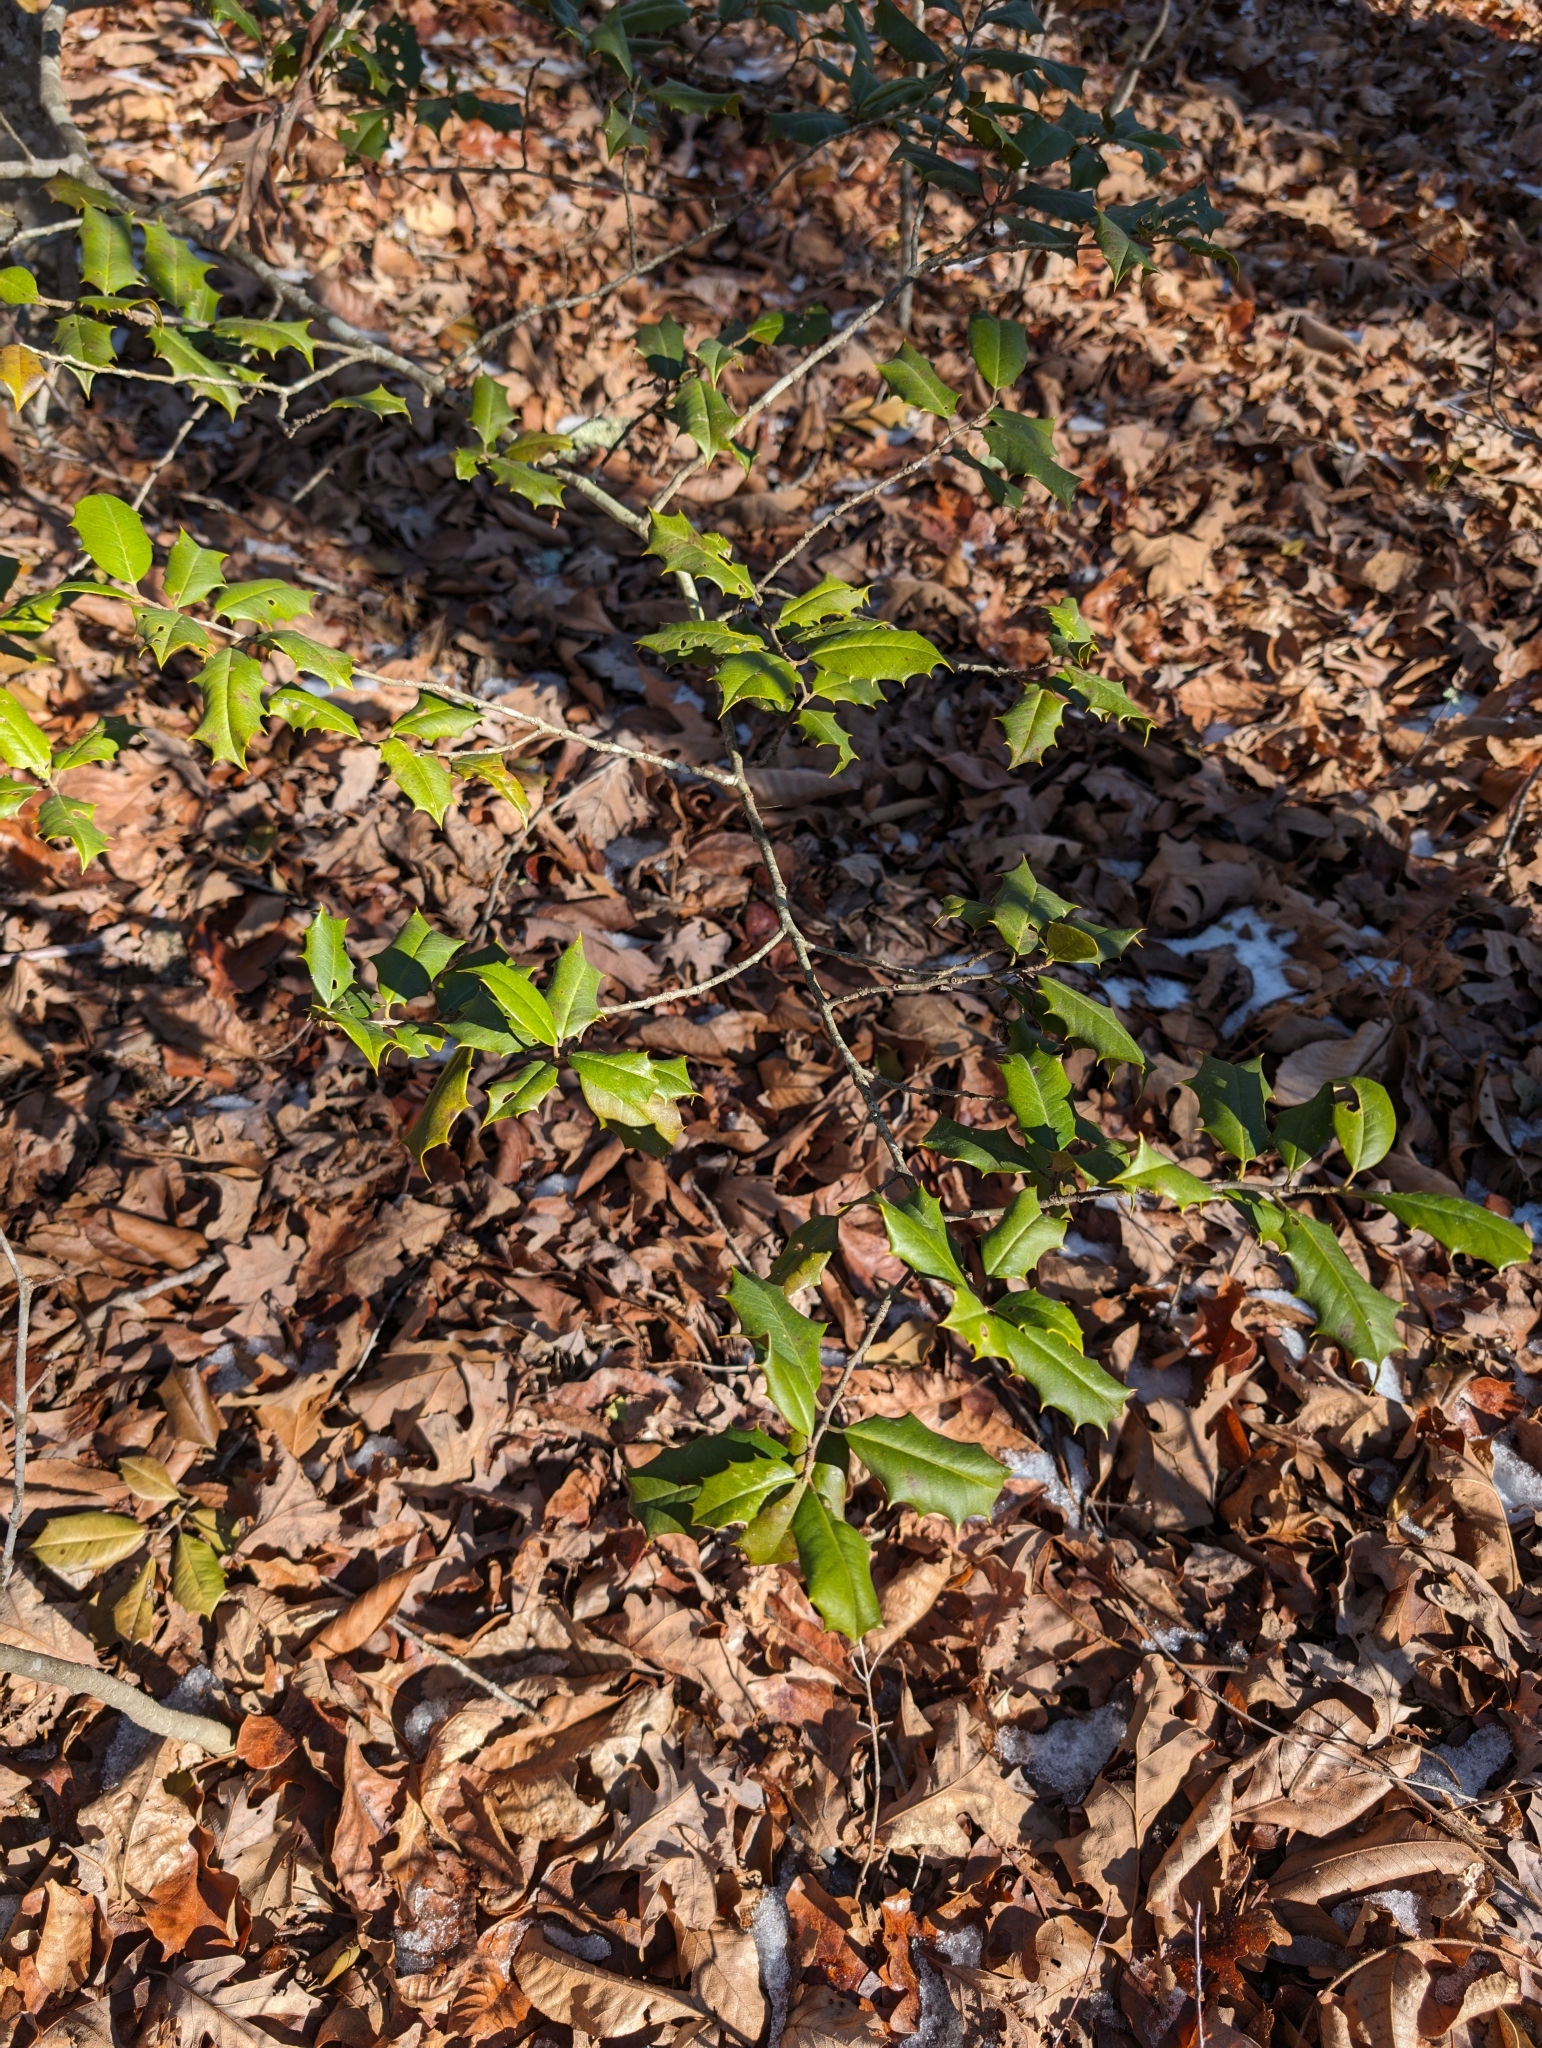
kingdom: Plantae
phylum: Tracheophyta
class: Magnoliopsida
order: Aquifoliales
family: Aquifoliaceae
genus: Ilex
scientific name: Ilex opaca
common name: American holly
